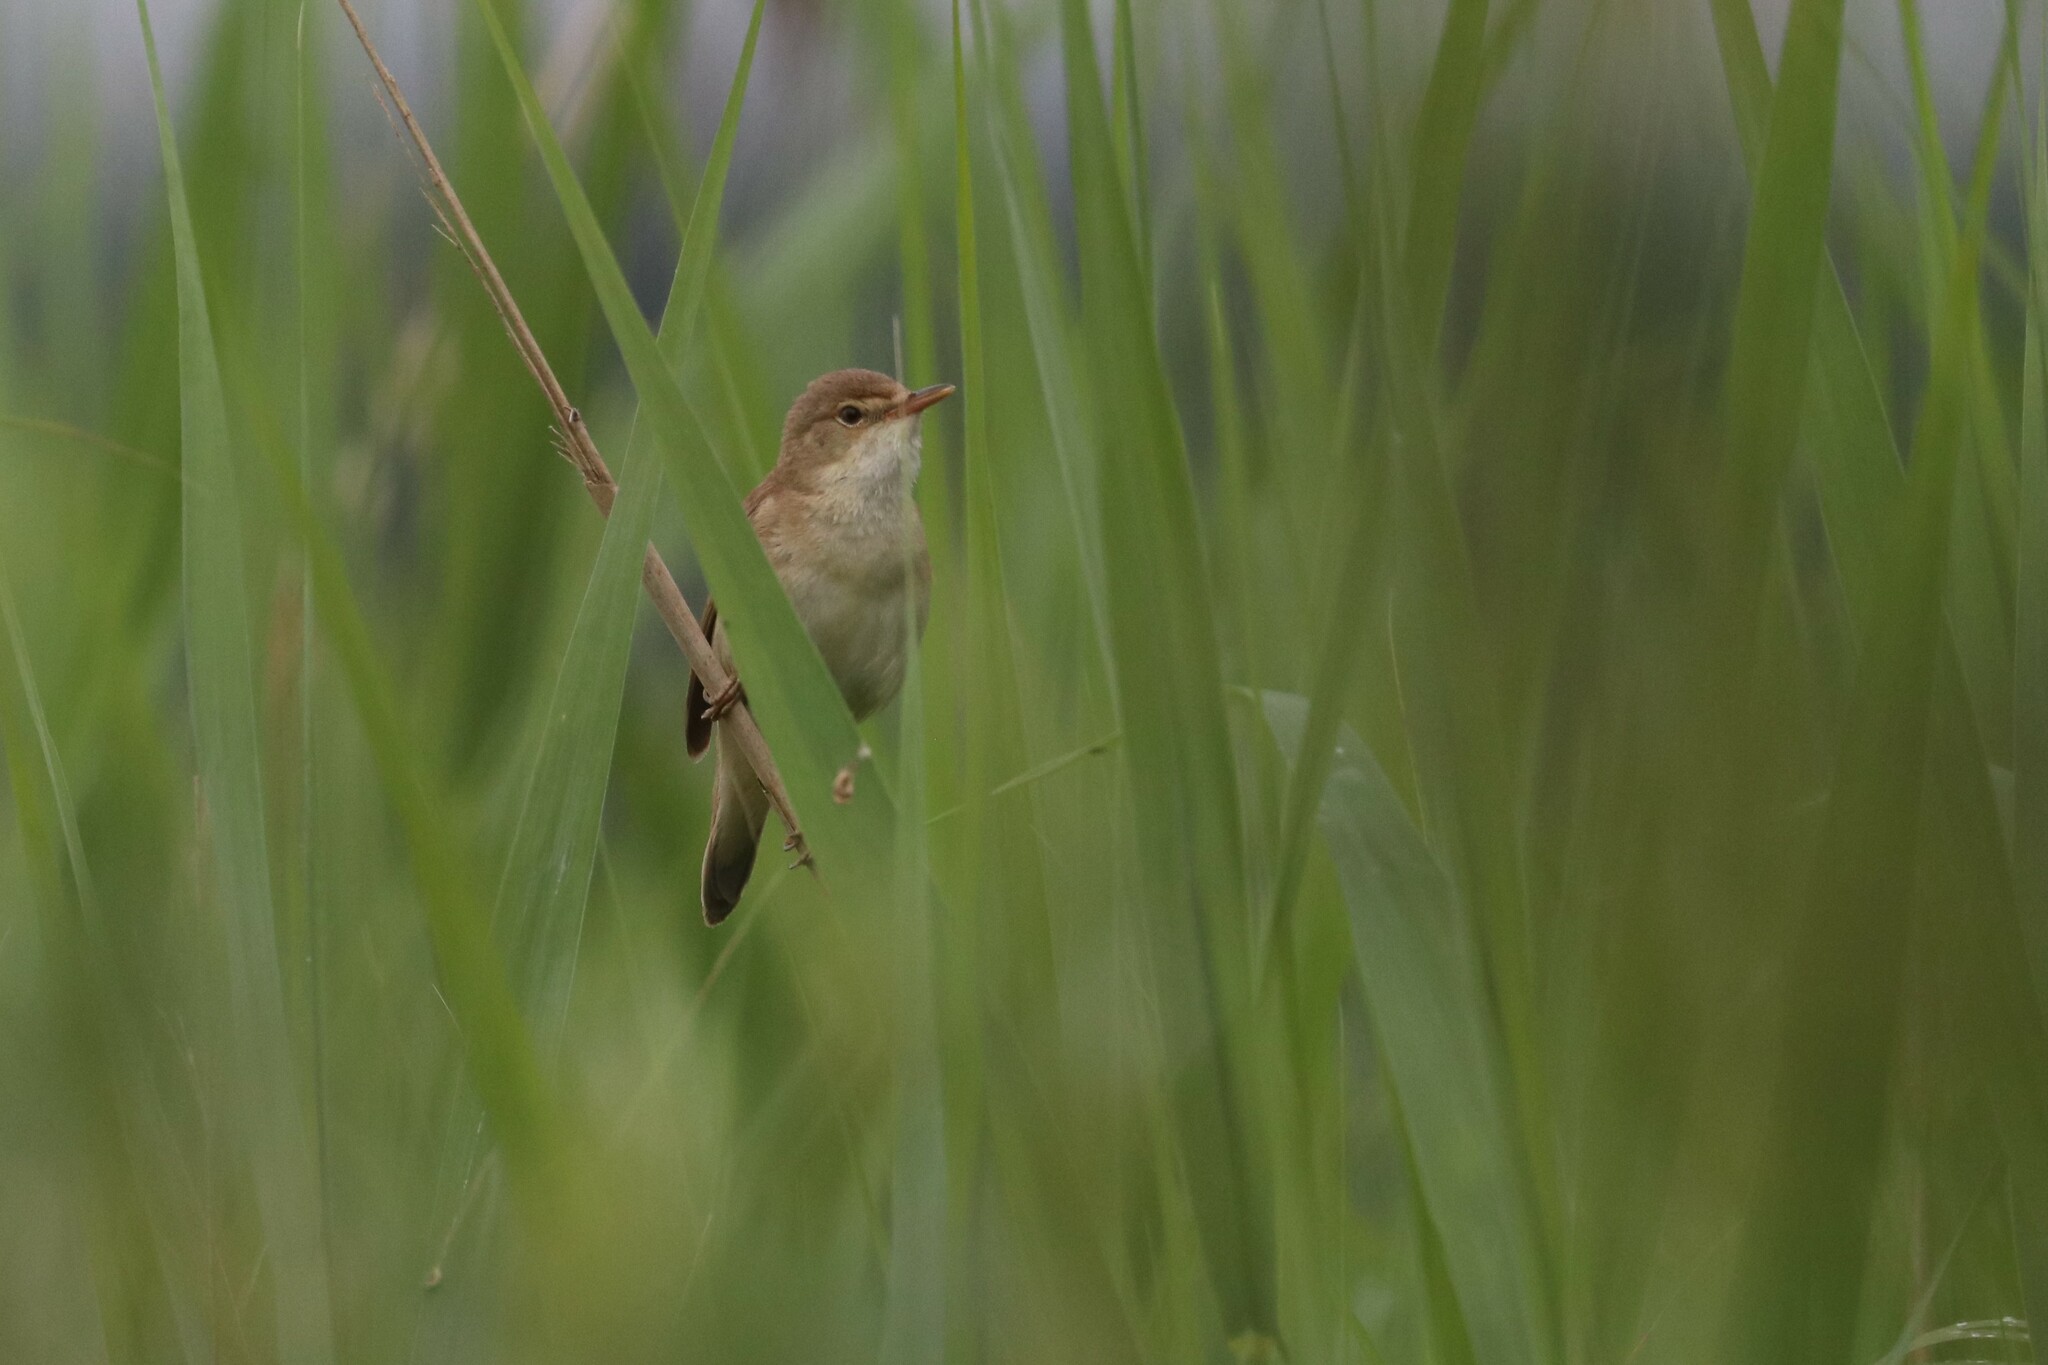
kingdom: Animalia
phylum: Chordata
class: Aves
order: Passeriformes
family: Acrocephalidae
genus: Acrocephalus
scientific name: Acrocephalus scirpaceus
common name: Eurasian reed warbler
